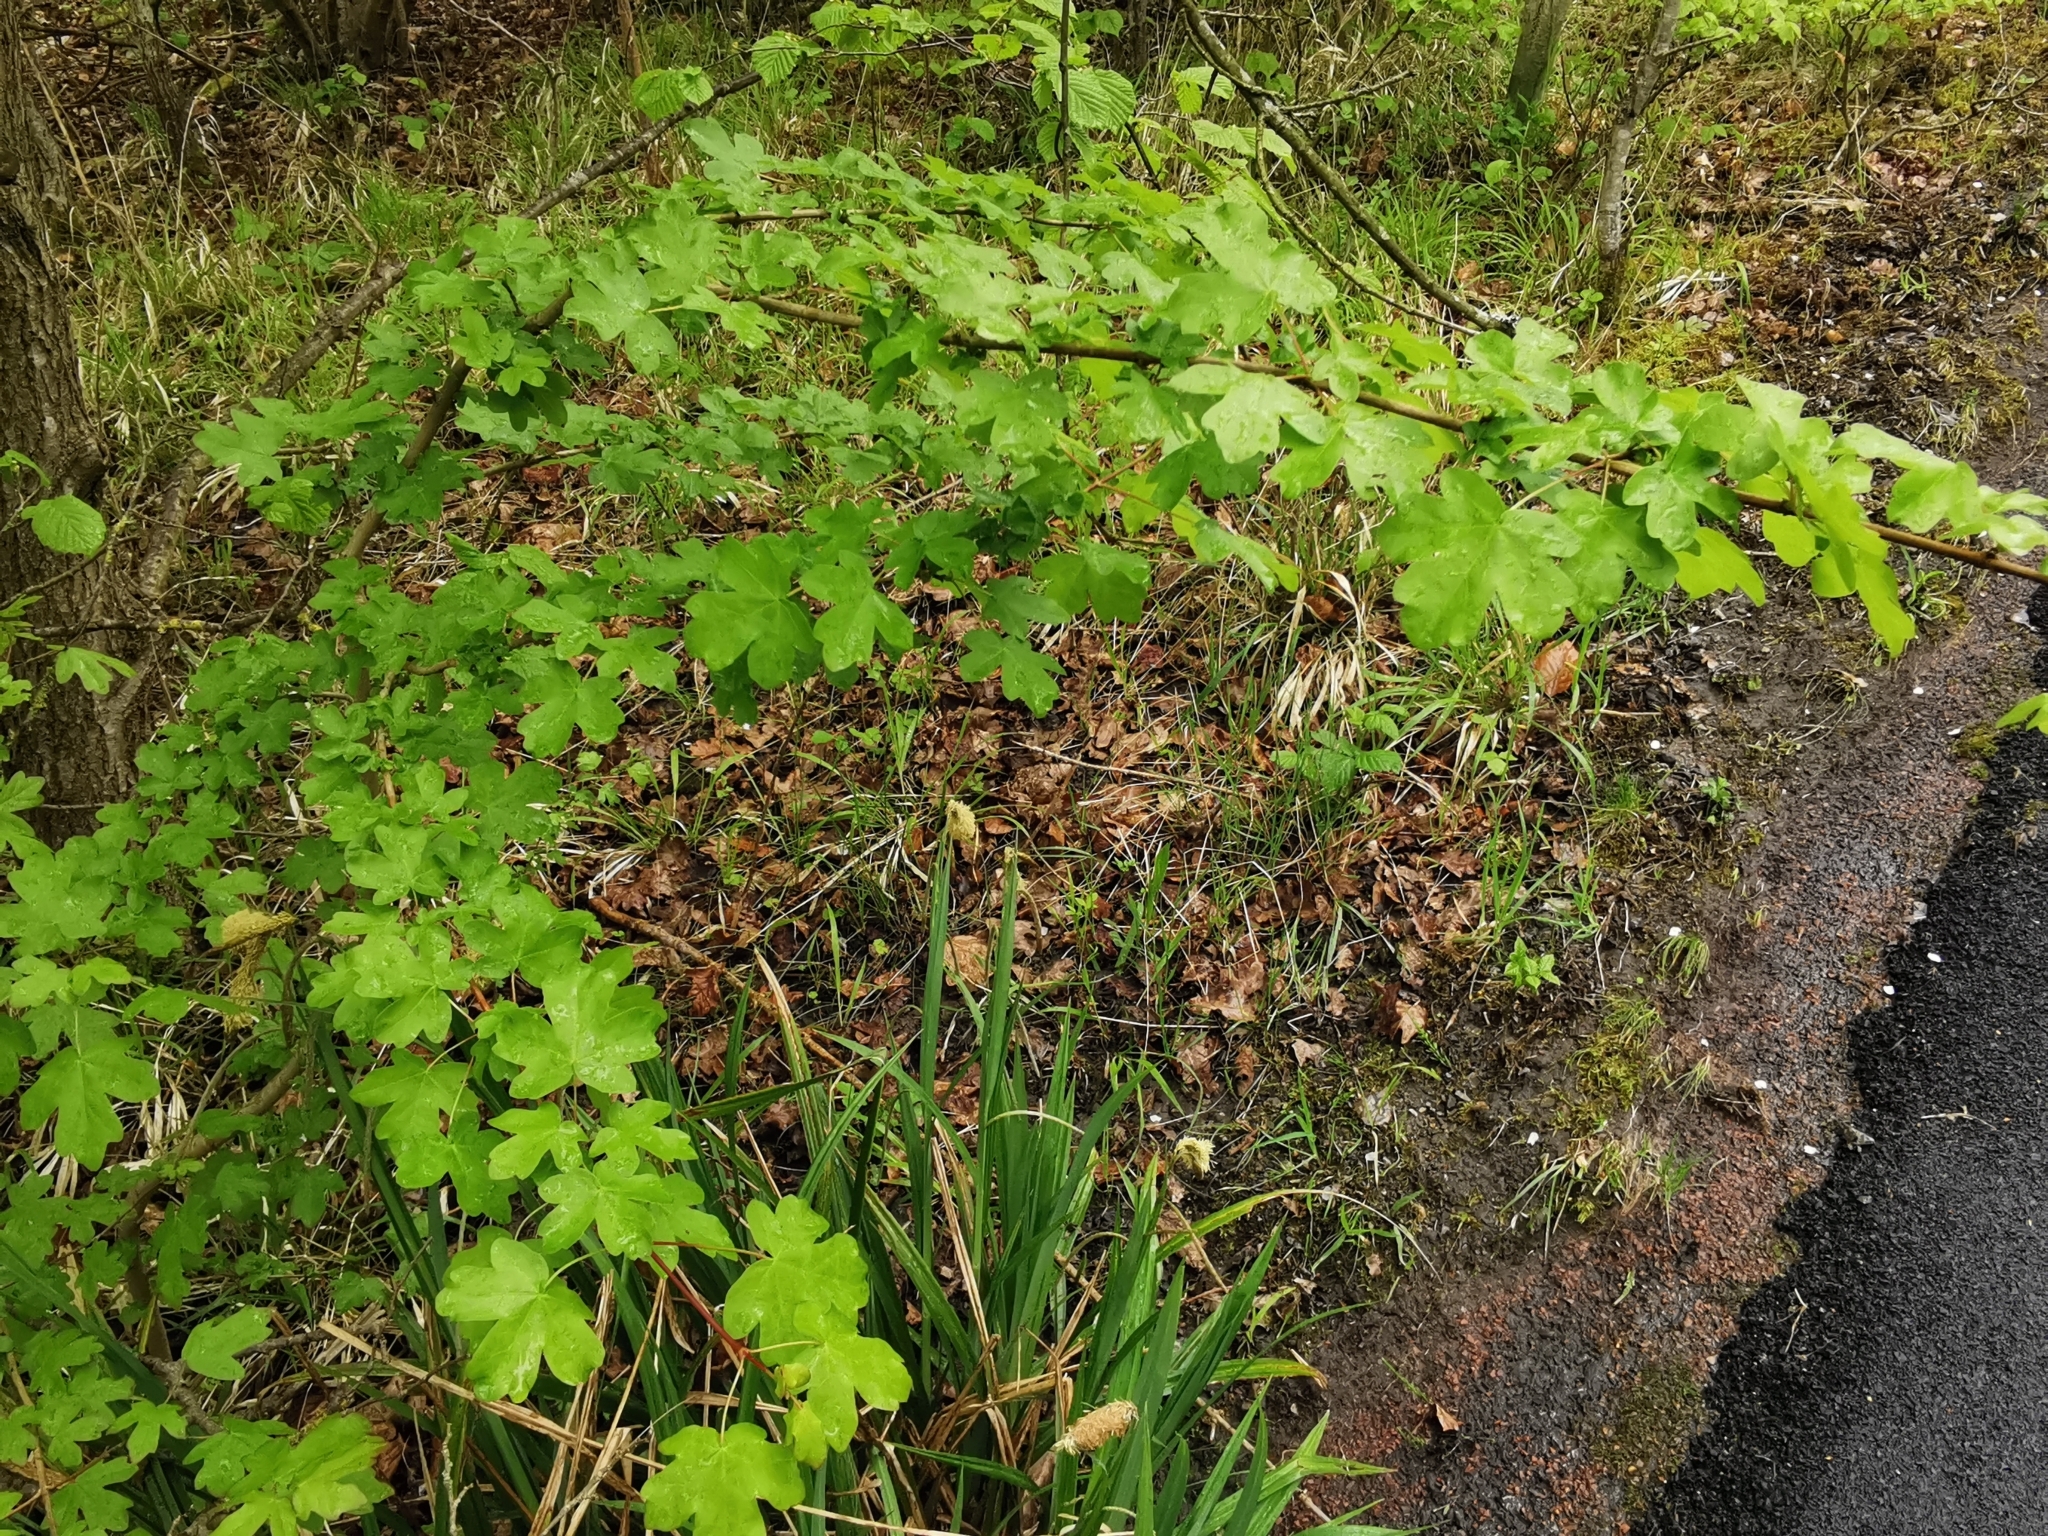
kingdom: Plantae
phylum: Tracheophyta
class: Magnoliopsida
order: Sapindales
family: Sapindaceae
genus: Acer
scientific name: Acer campestre
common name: Field maple
